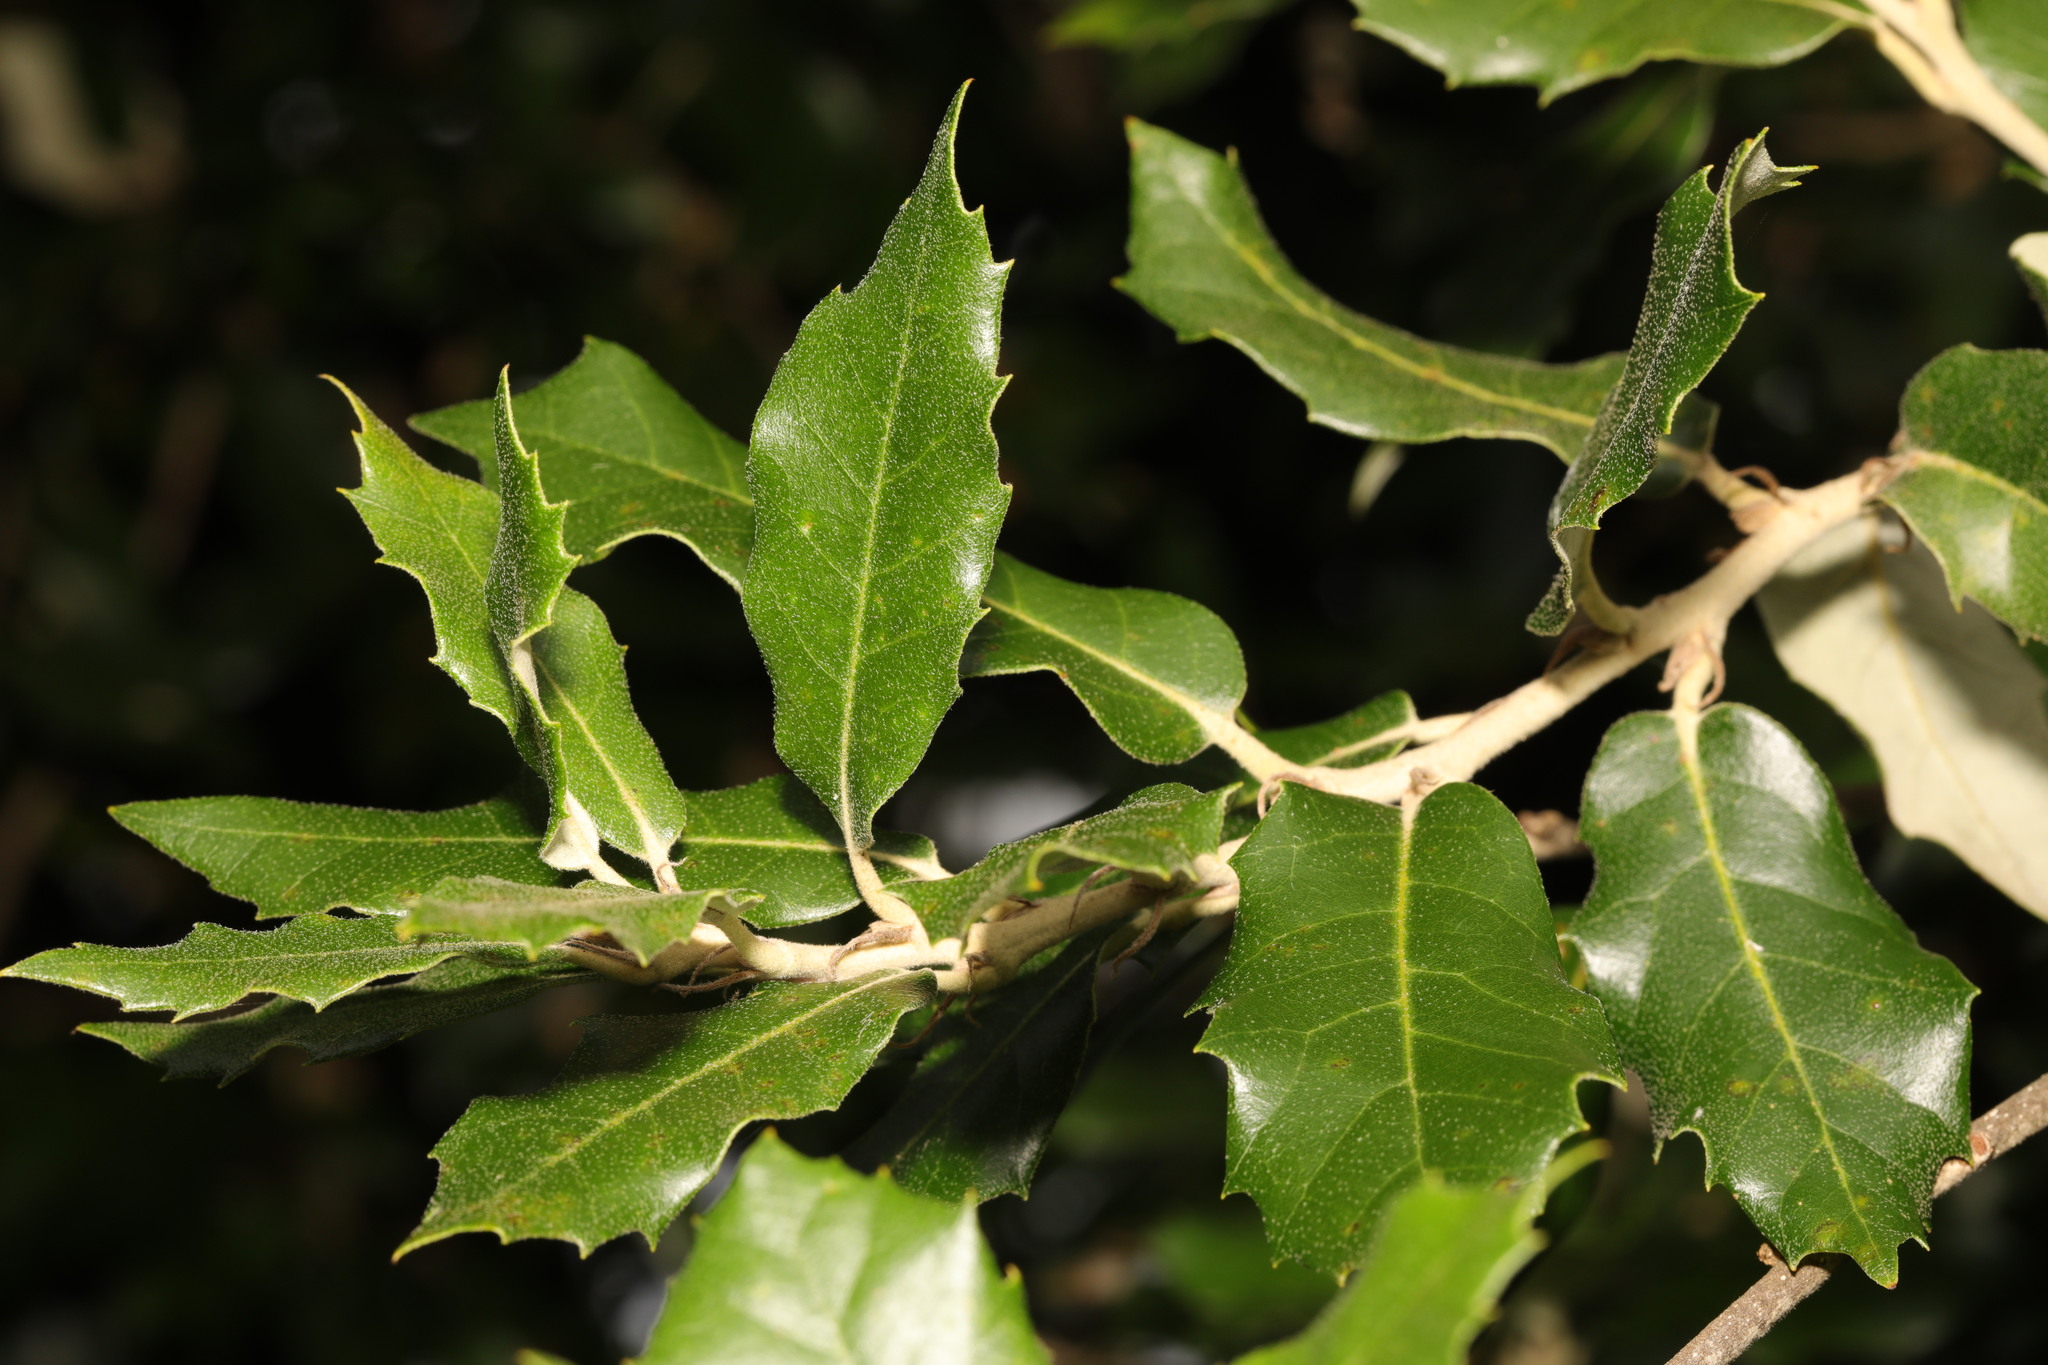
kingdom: Plantae
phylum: Tracheophyta
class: Magnoliopsida
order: Fagales
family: Fagaceae
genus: Quercus
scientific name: Quercus ilex
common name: Evergreen oak
